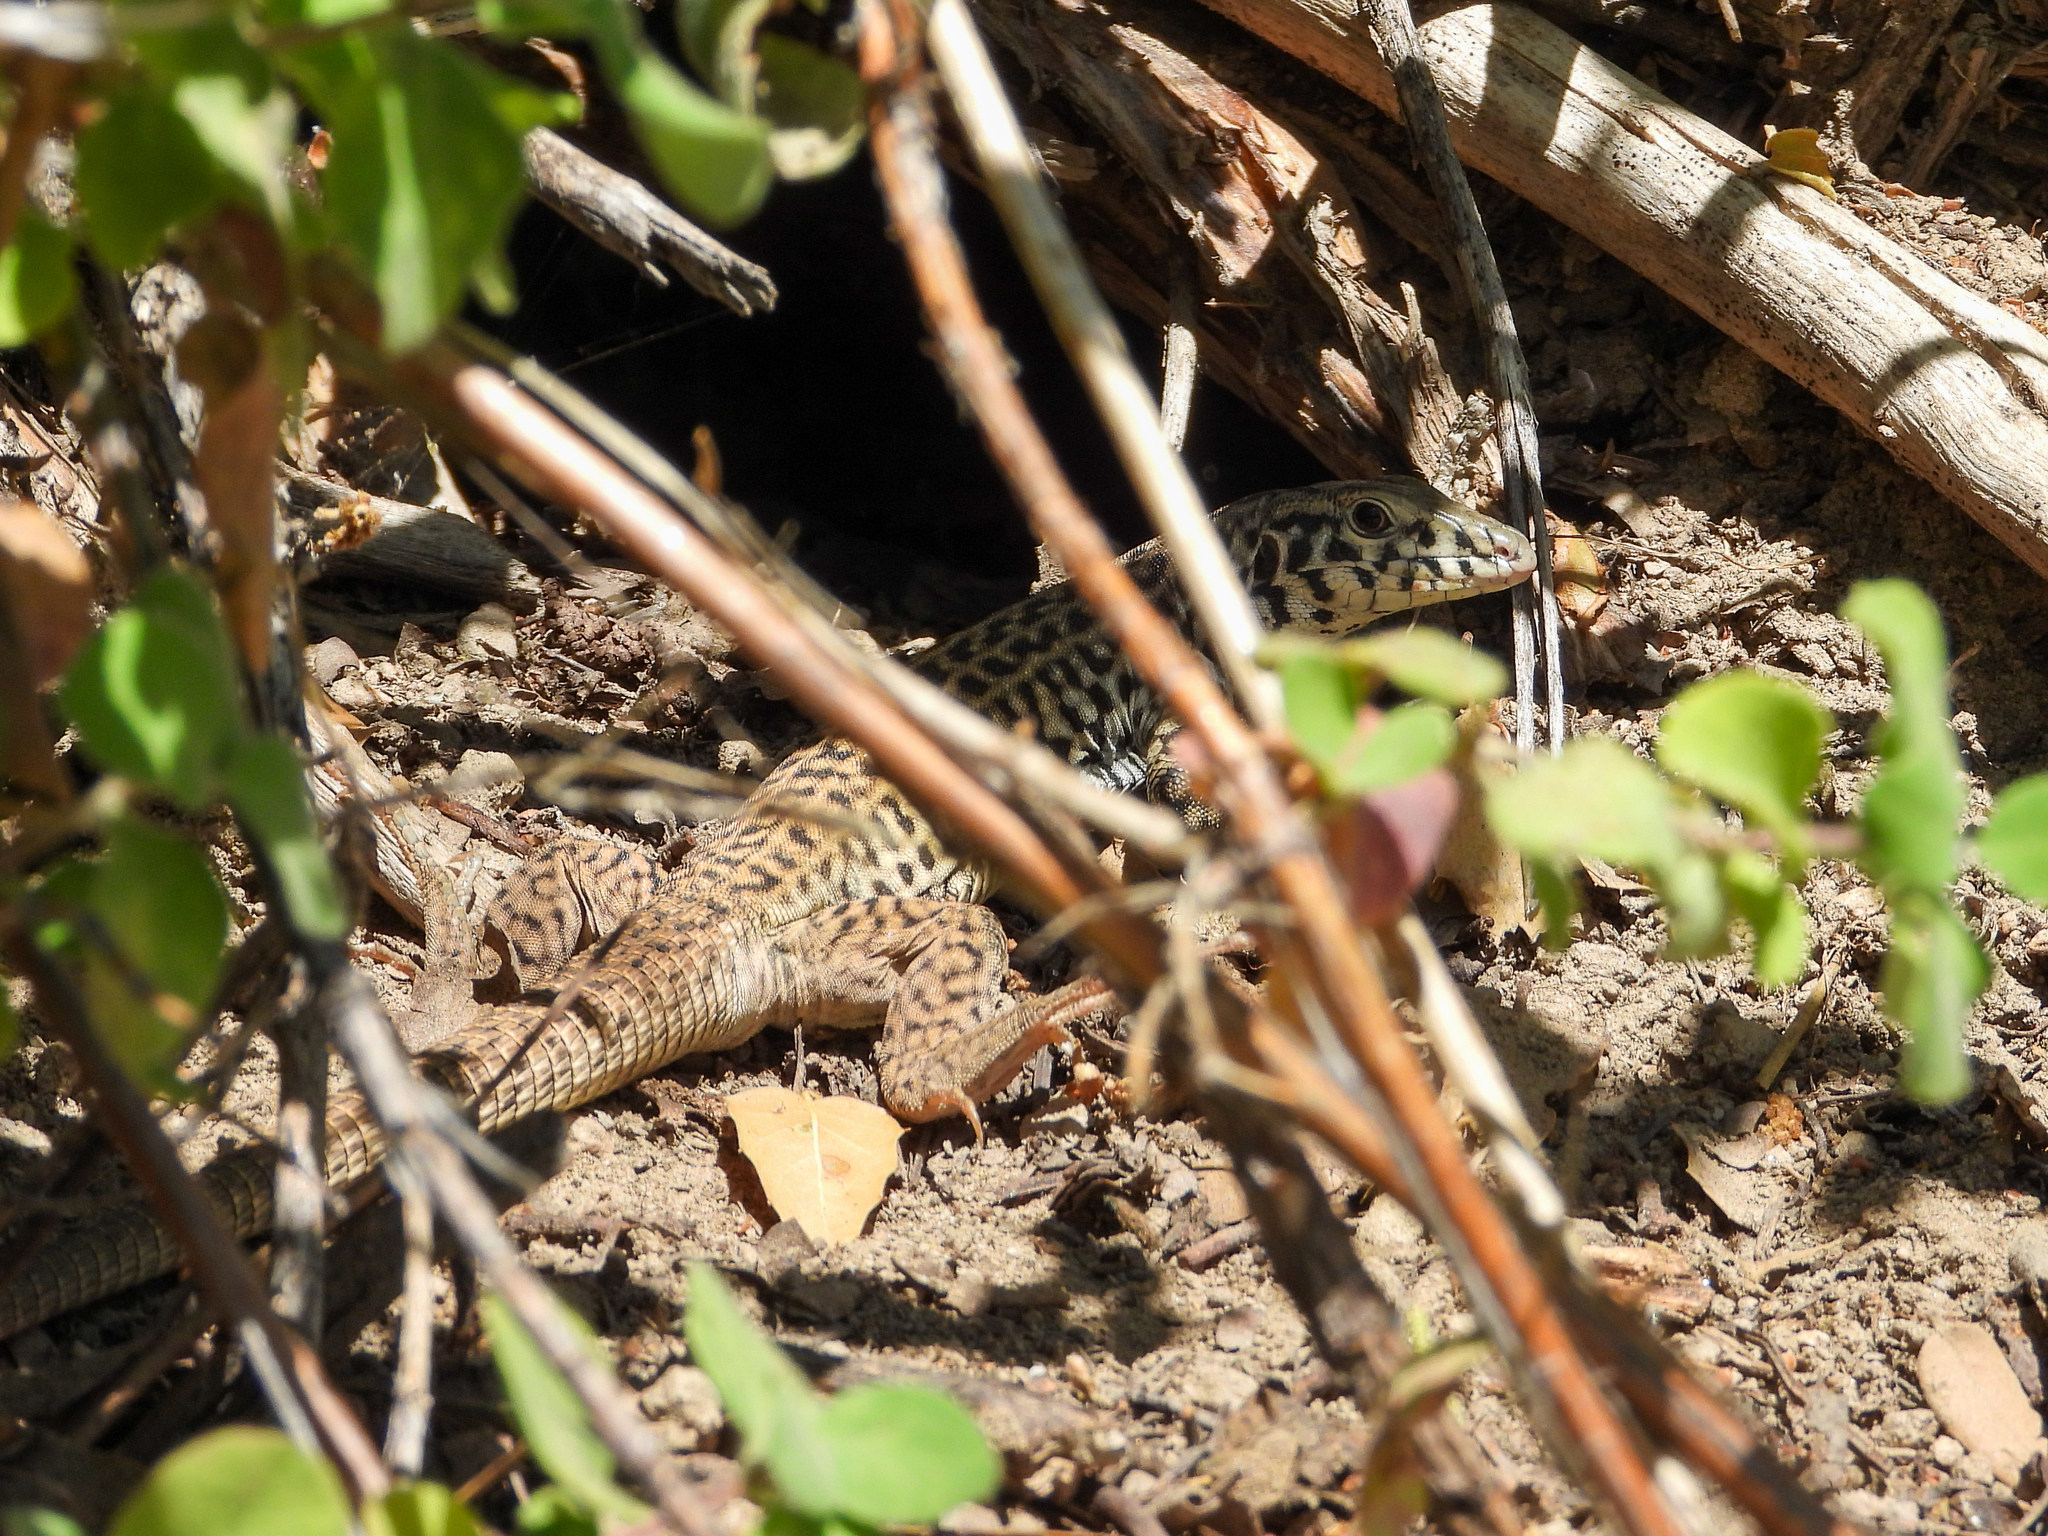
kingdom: Animalia
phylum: Chordata
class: Squamata
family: Teiidae
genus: Aspidoscelis
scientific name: Aspidoscelis tigris
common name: Tiger whiptail
